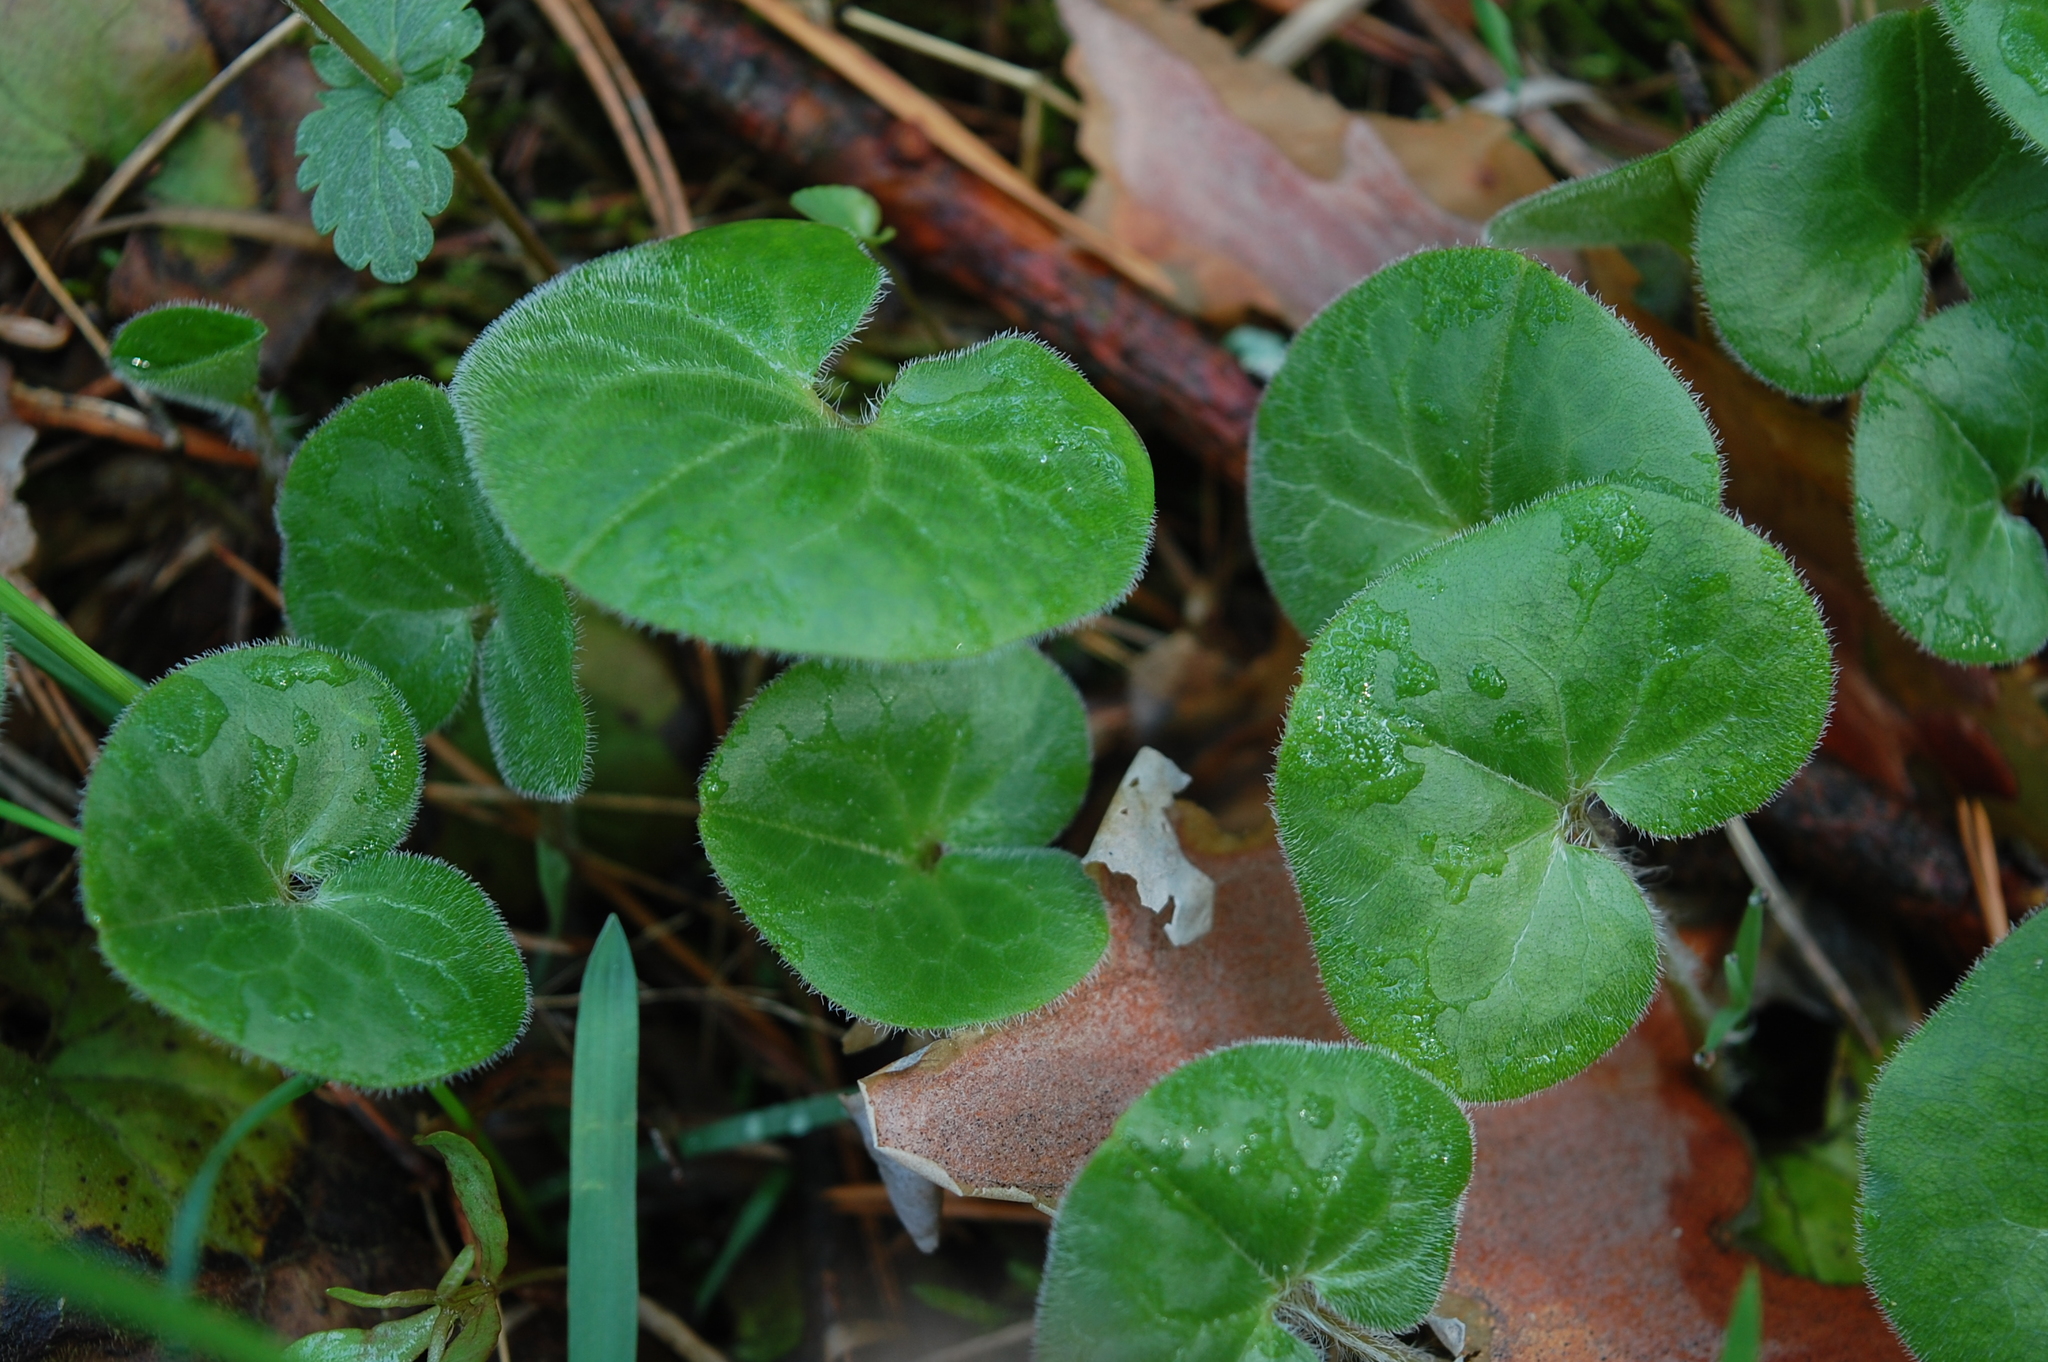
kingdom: Plantae
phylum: Tracheophyta
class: Magnoliopsida
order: Piperales
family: Aristolochiaceae
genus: Asarum
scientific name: Asarum europaeum
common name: Asarabacca
